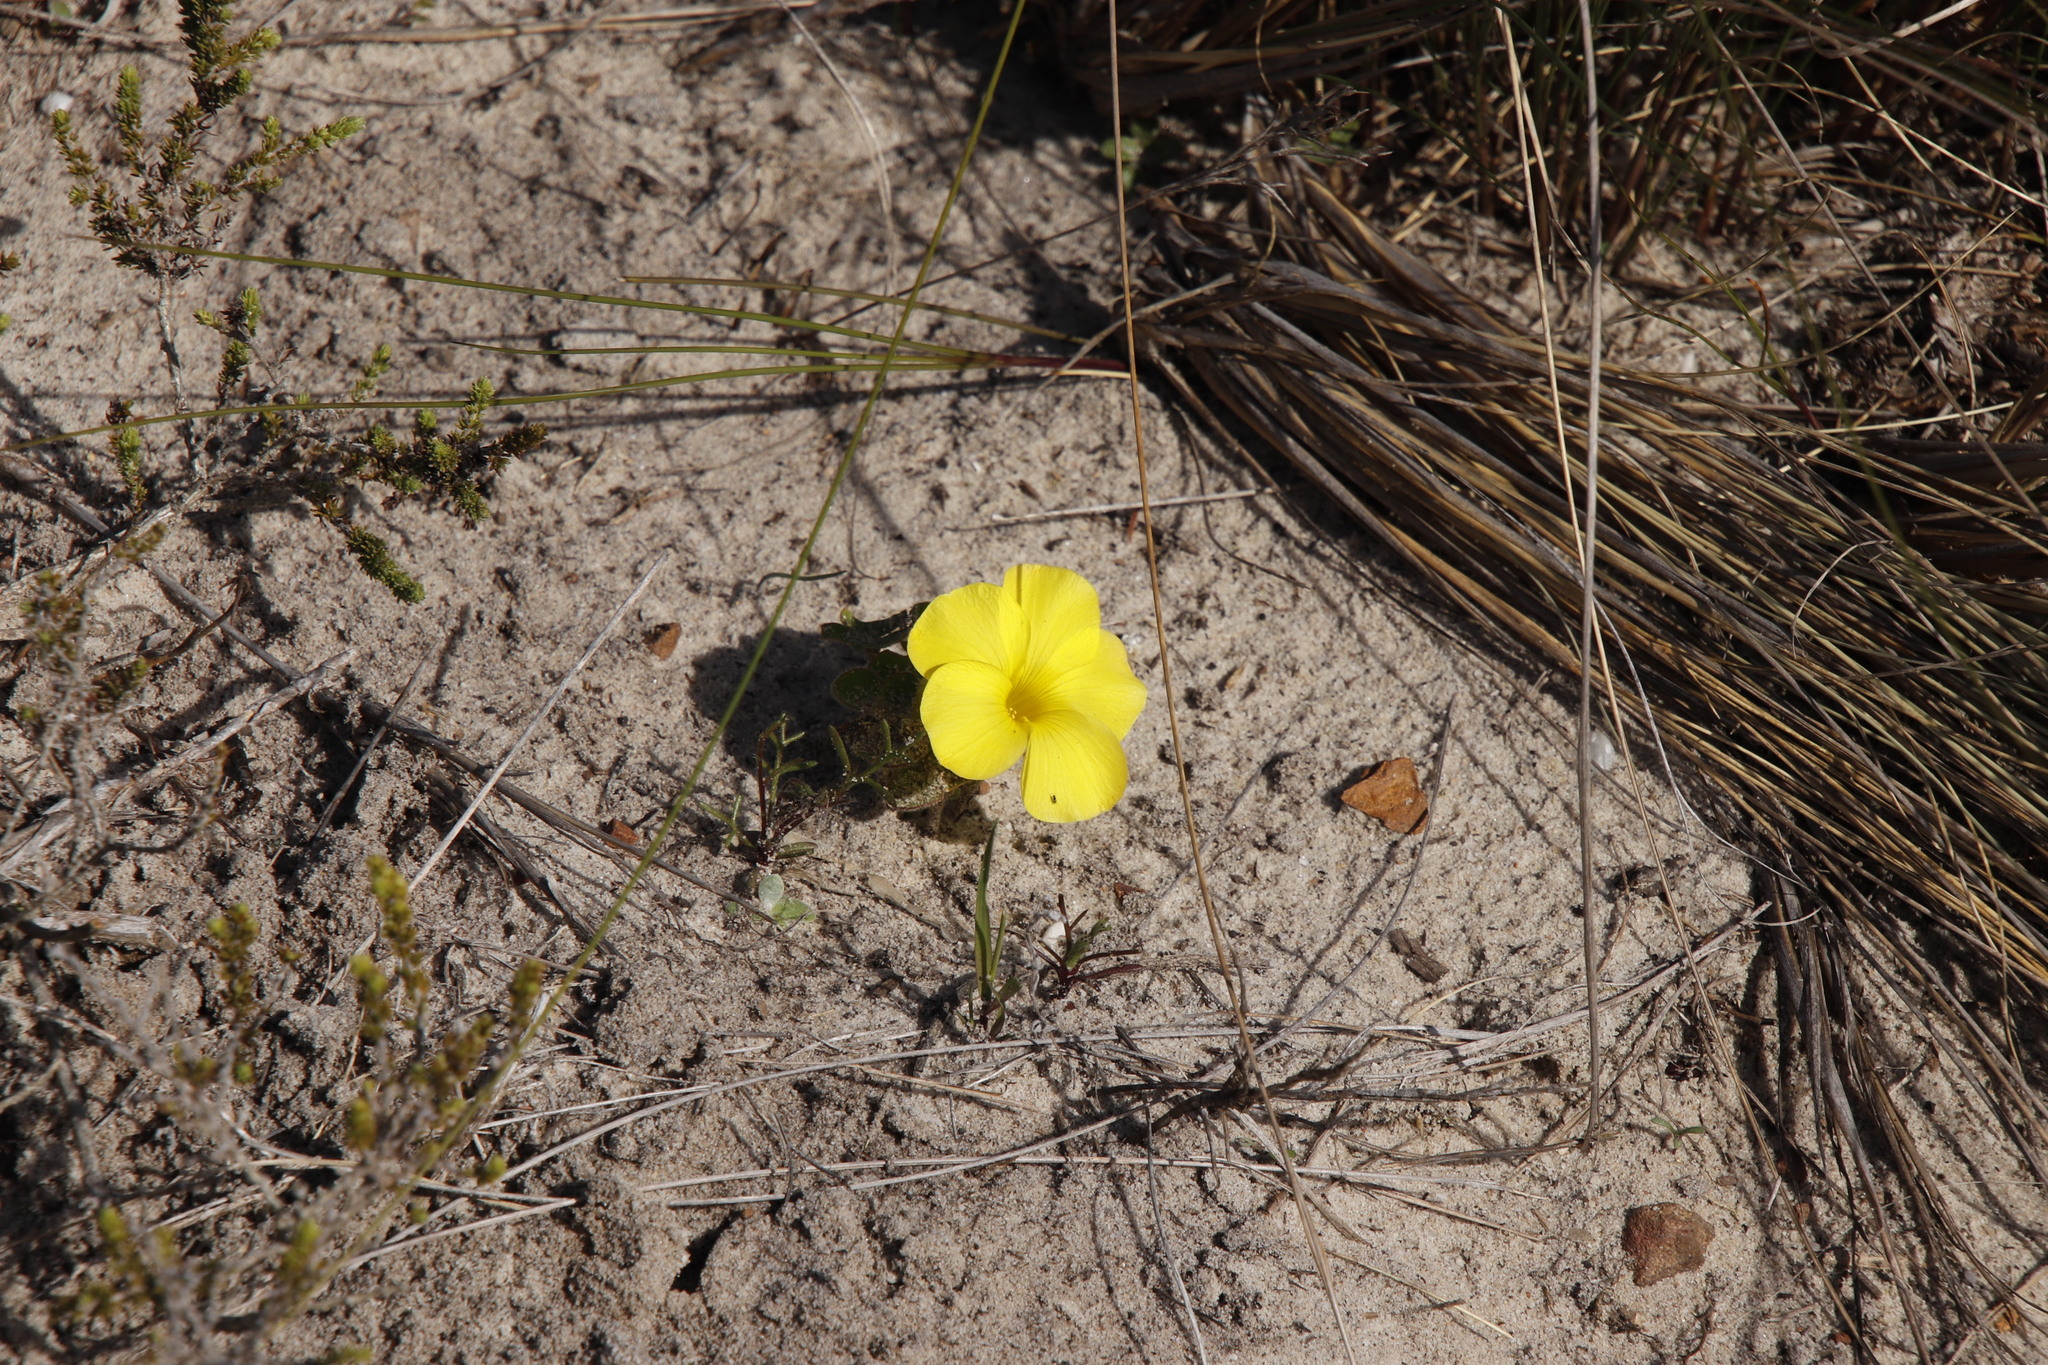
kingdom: Plantae
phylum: Tracheophyta
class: Magnoliopsida
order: Oxalidales
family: Oxalidaceae
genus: Oxalis
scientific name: Oxalis luteola
